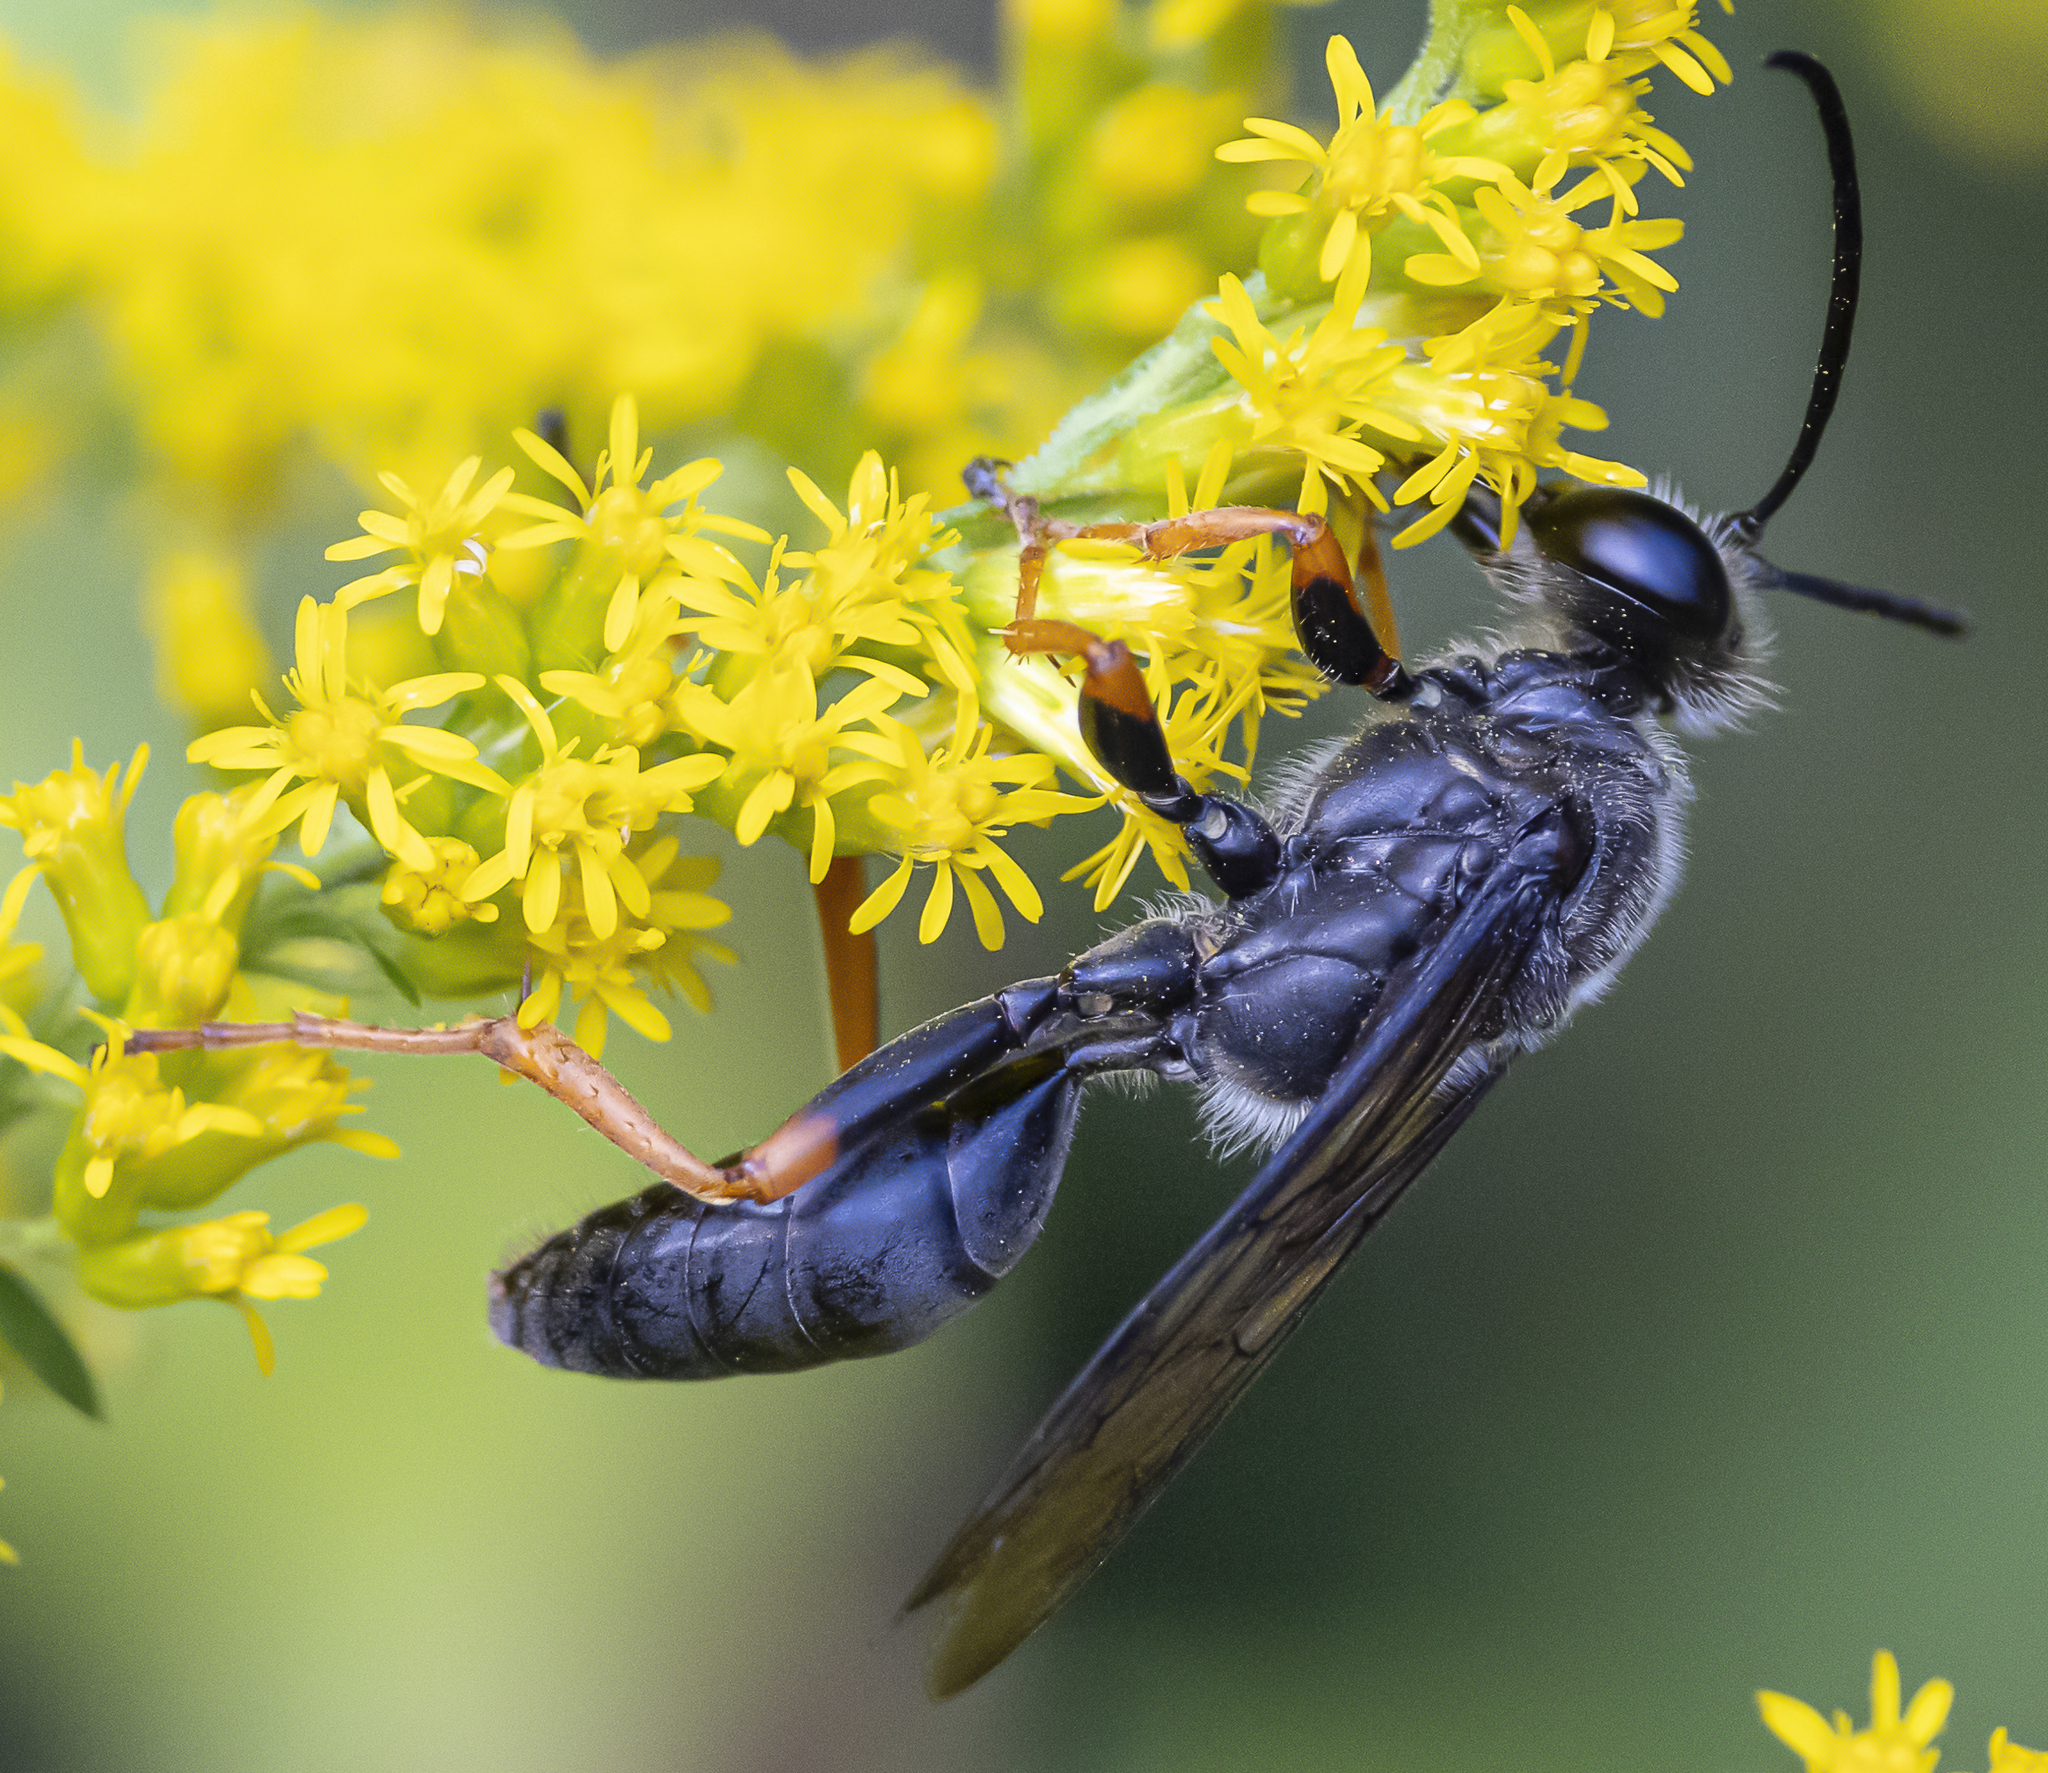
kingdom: Animalia
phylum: Arthropoda
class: Insecta
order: Hymenoptera
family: Sphecidae
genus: Sphex
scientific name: Sphex nudus
